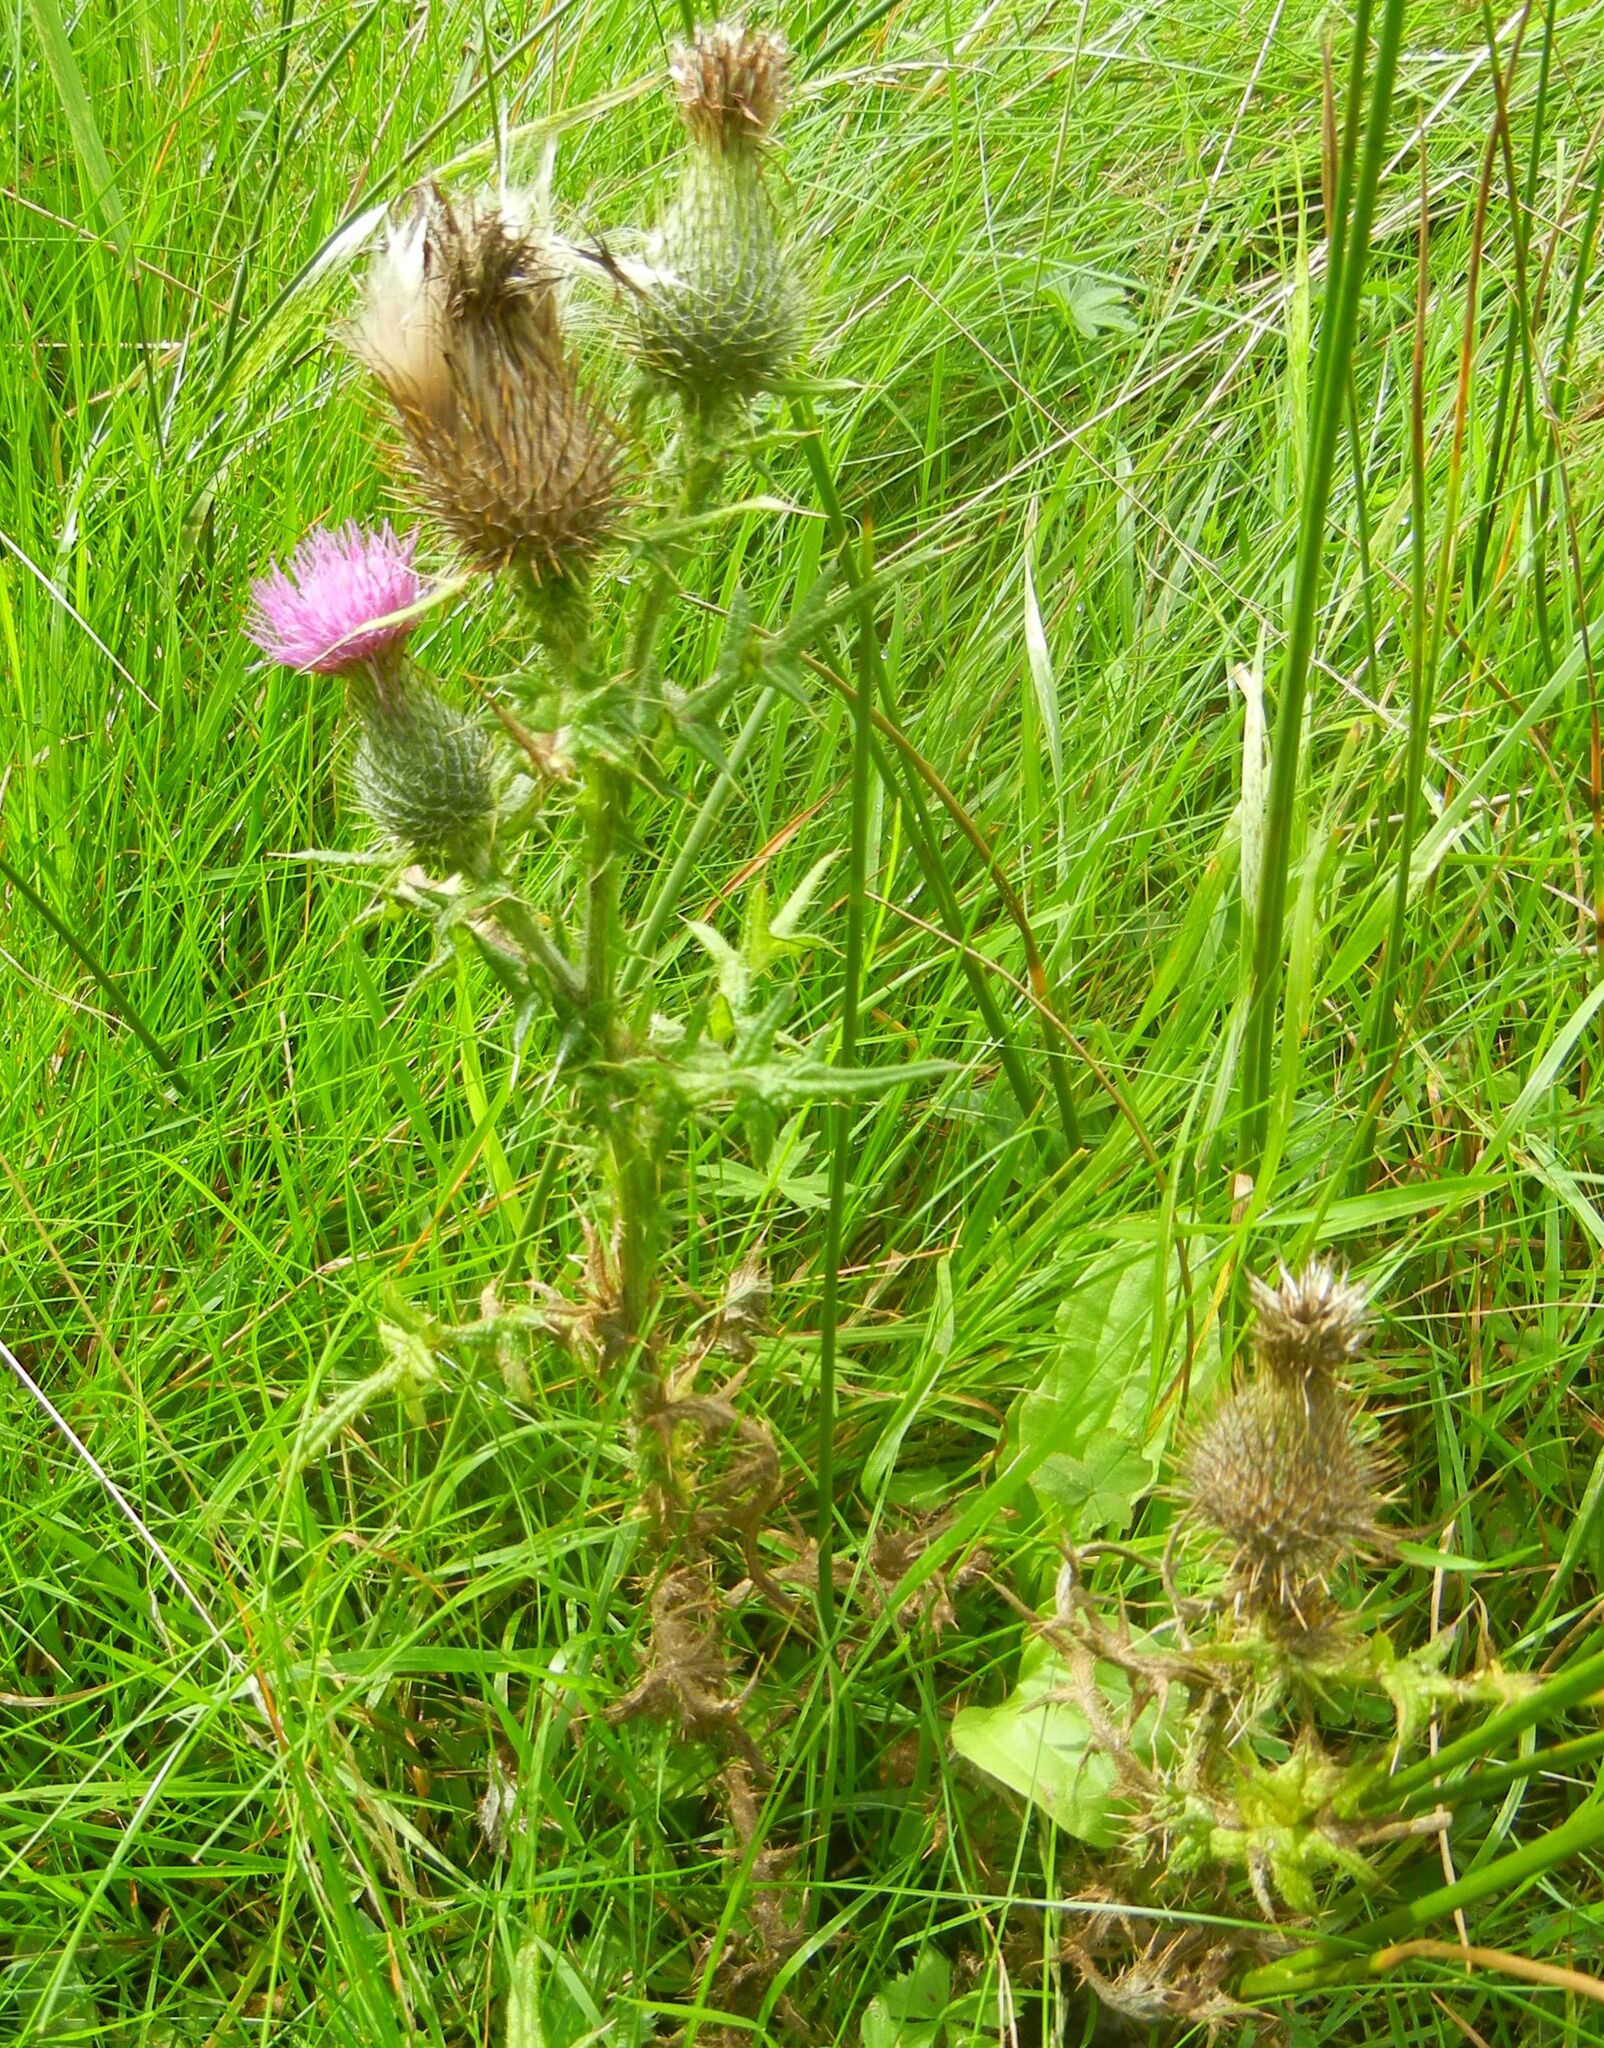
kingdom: Plantae
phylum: Tracheophyta
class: Magnoliopsida
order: Asterales
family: Asteraceae
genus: Cirsium
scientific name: Cirsium vulgare
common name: Bull thistle
